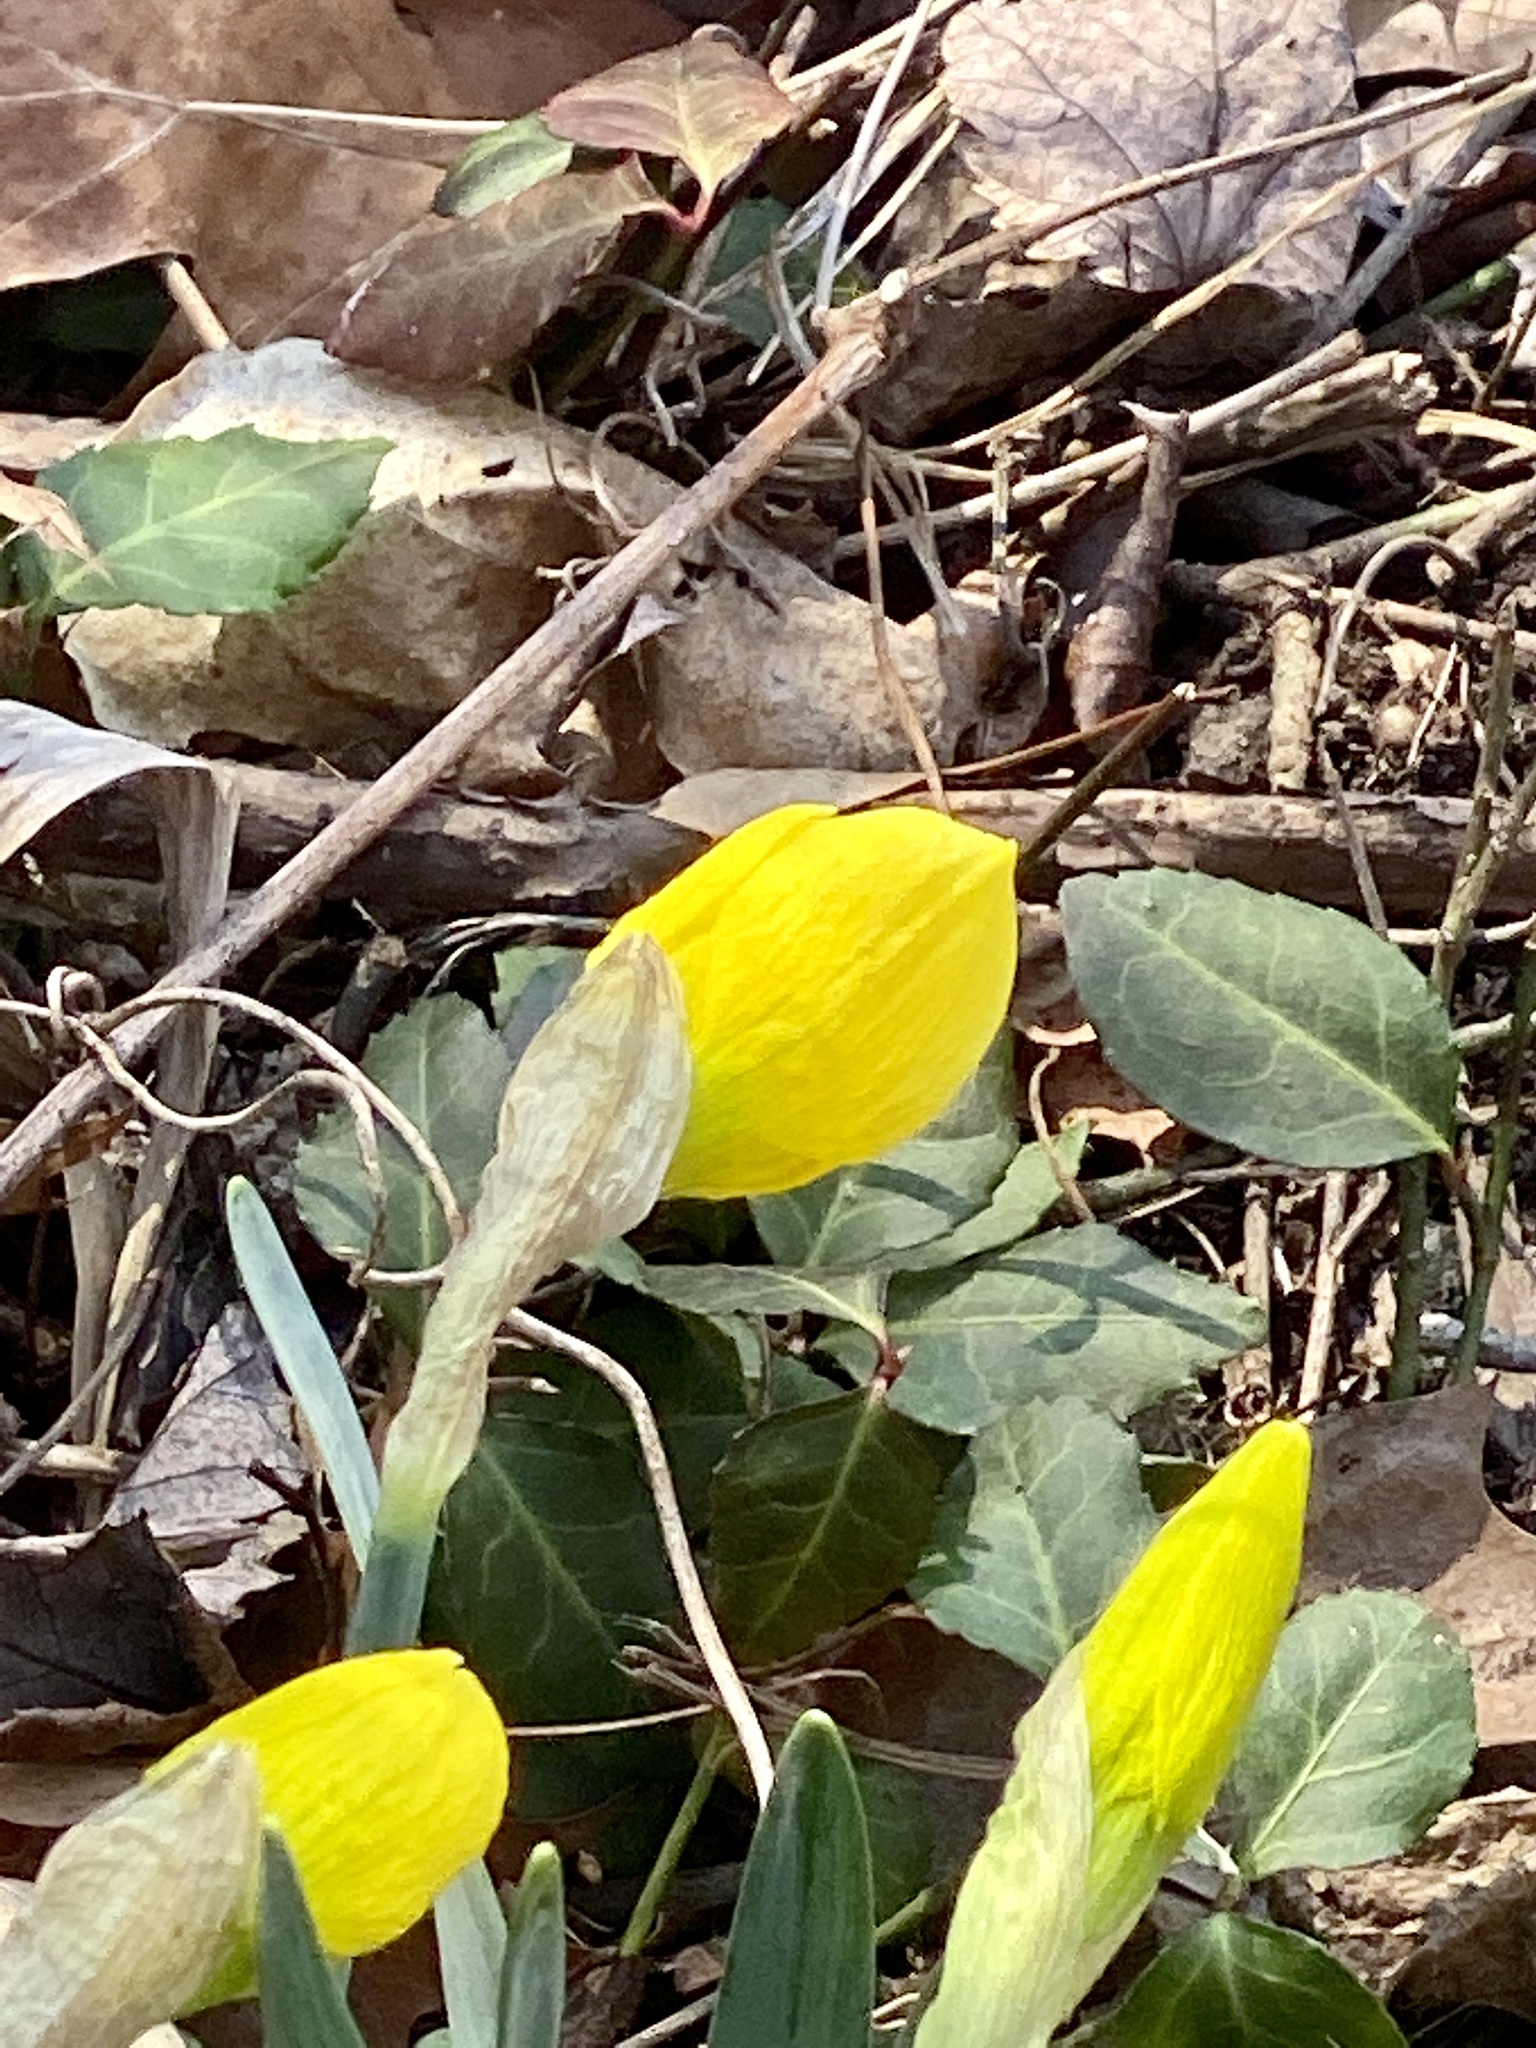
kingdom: Plantae
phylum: Tracheophyta
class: Liliopsida
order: Asparagales
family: Amaryllidaceae
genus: Narcissus
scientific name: Narcissus
